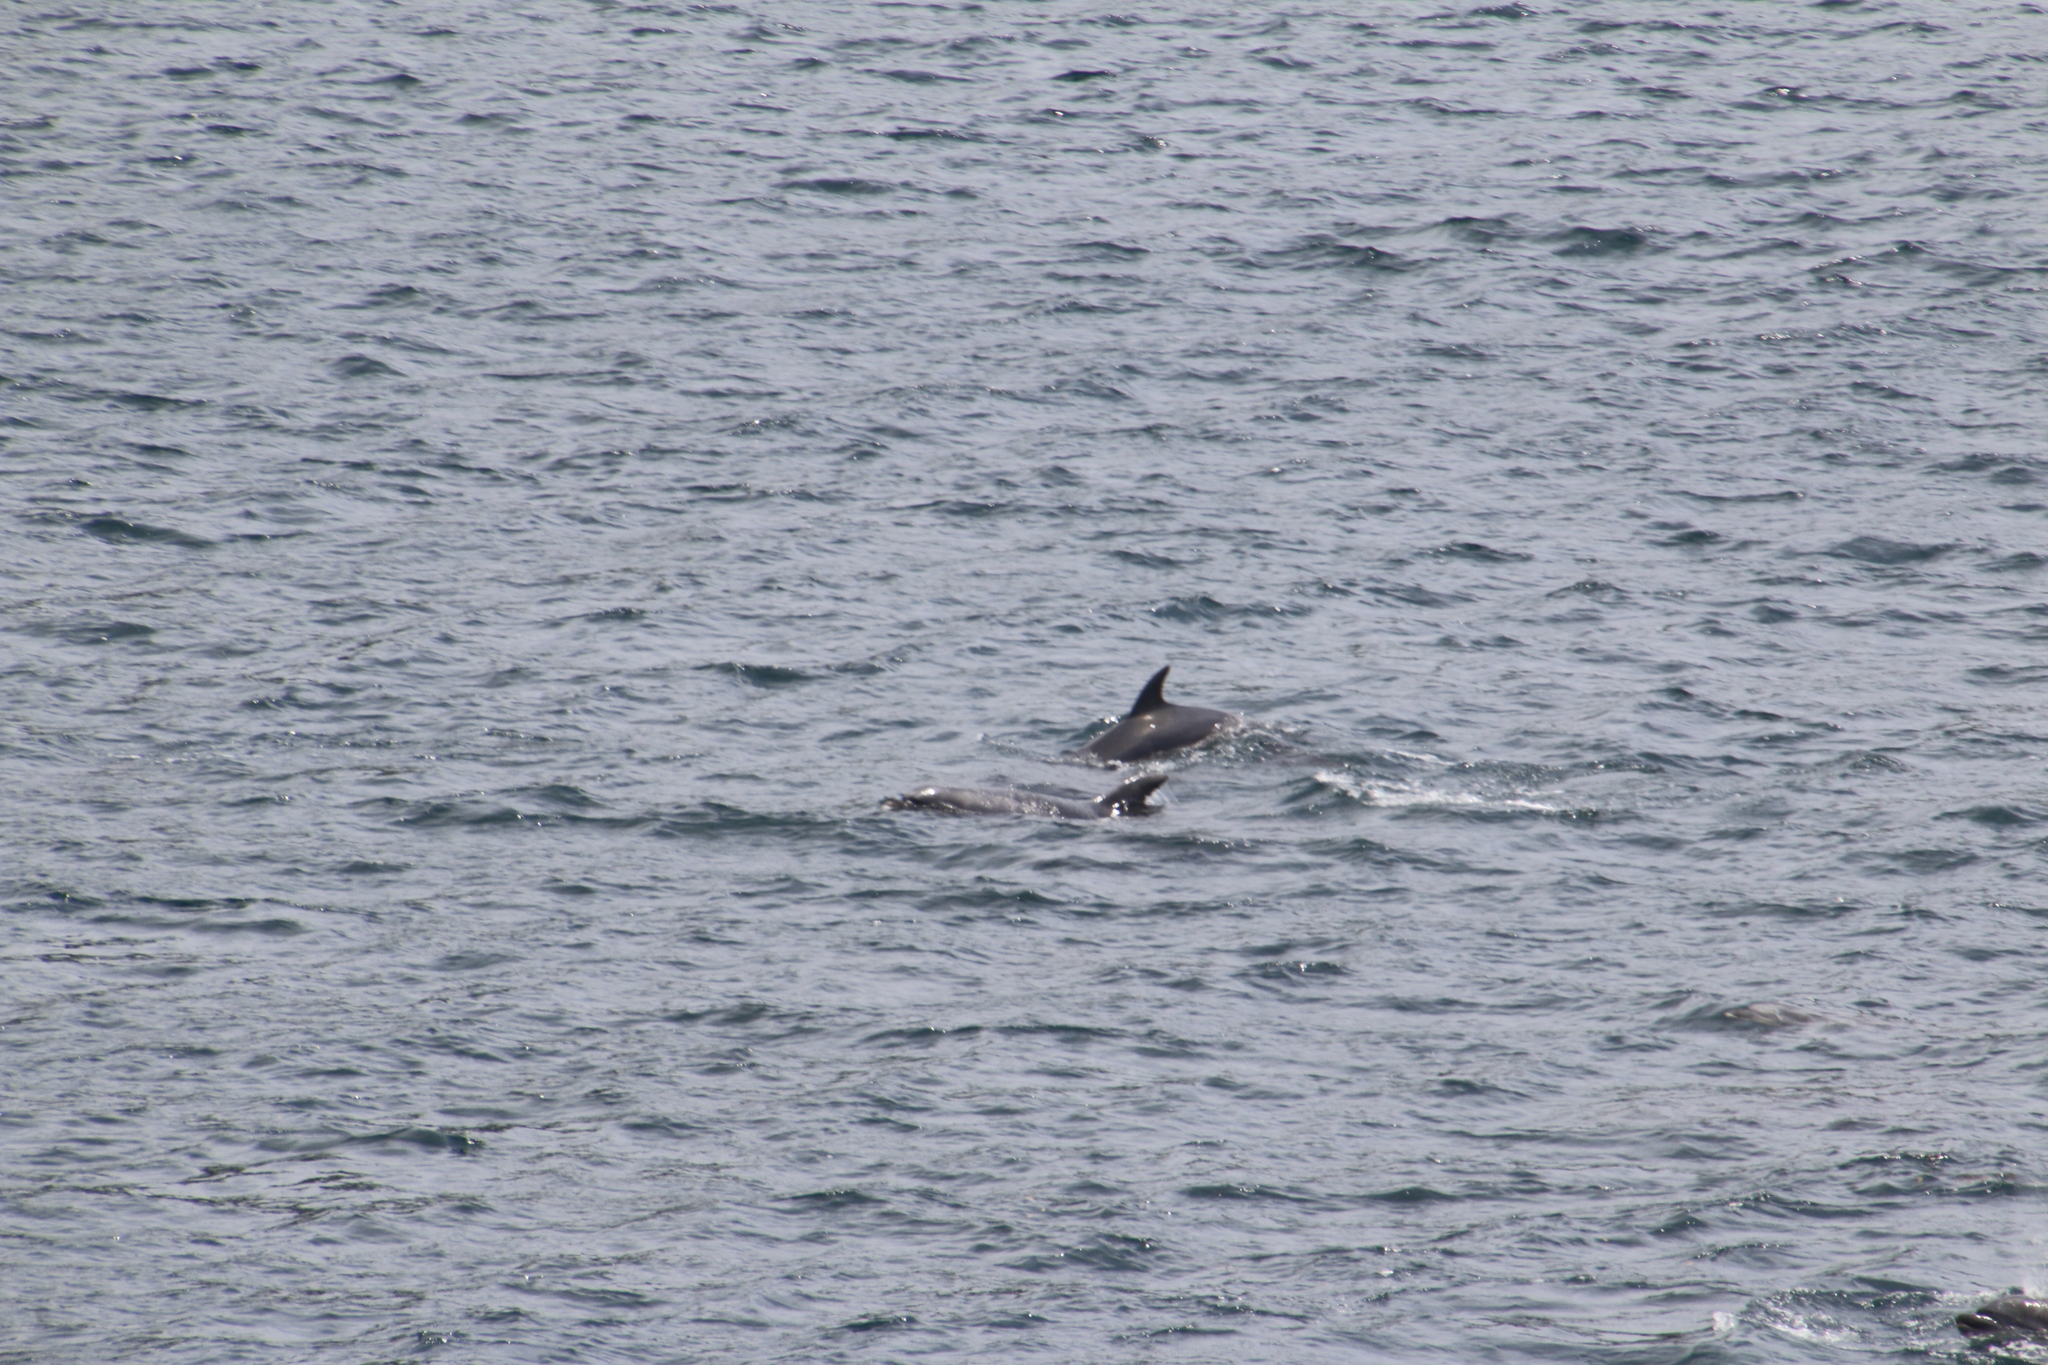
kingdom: Animalia
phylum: Chordata
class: Mammalia
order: Cetacea
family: Delphinidae
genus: Tursiops
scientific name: Tursiops truncatus
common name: Bottlenose dolphin
